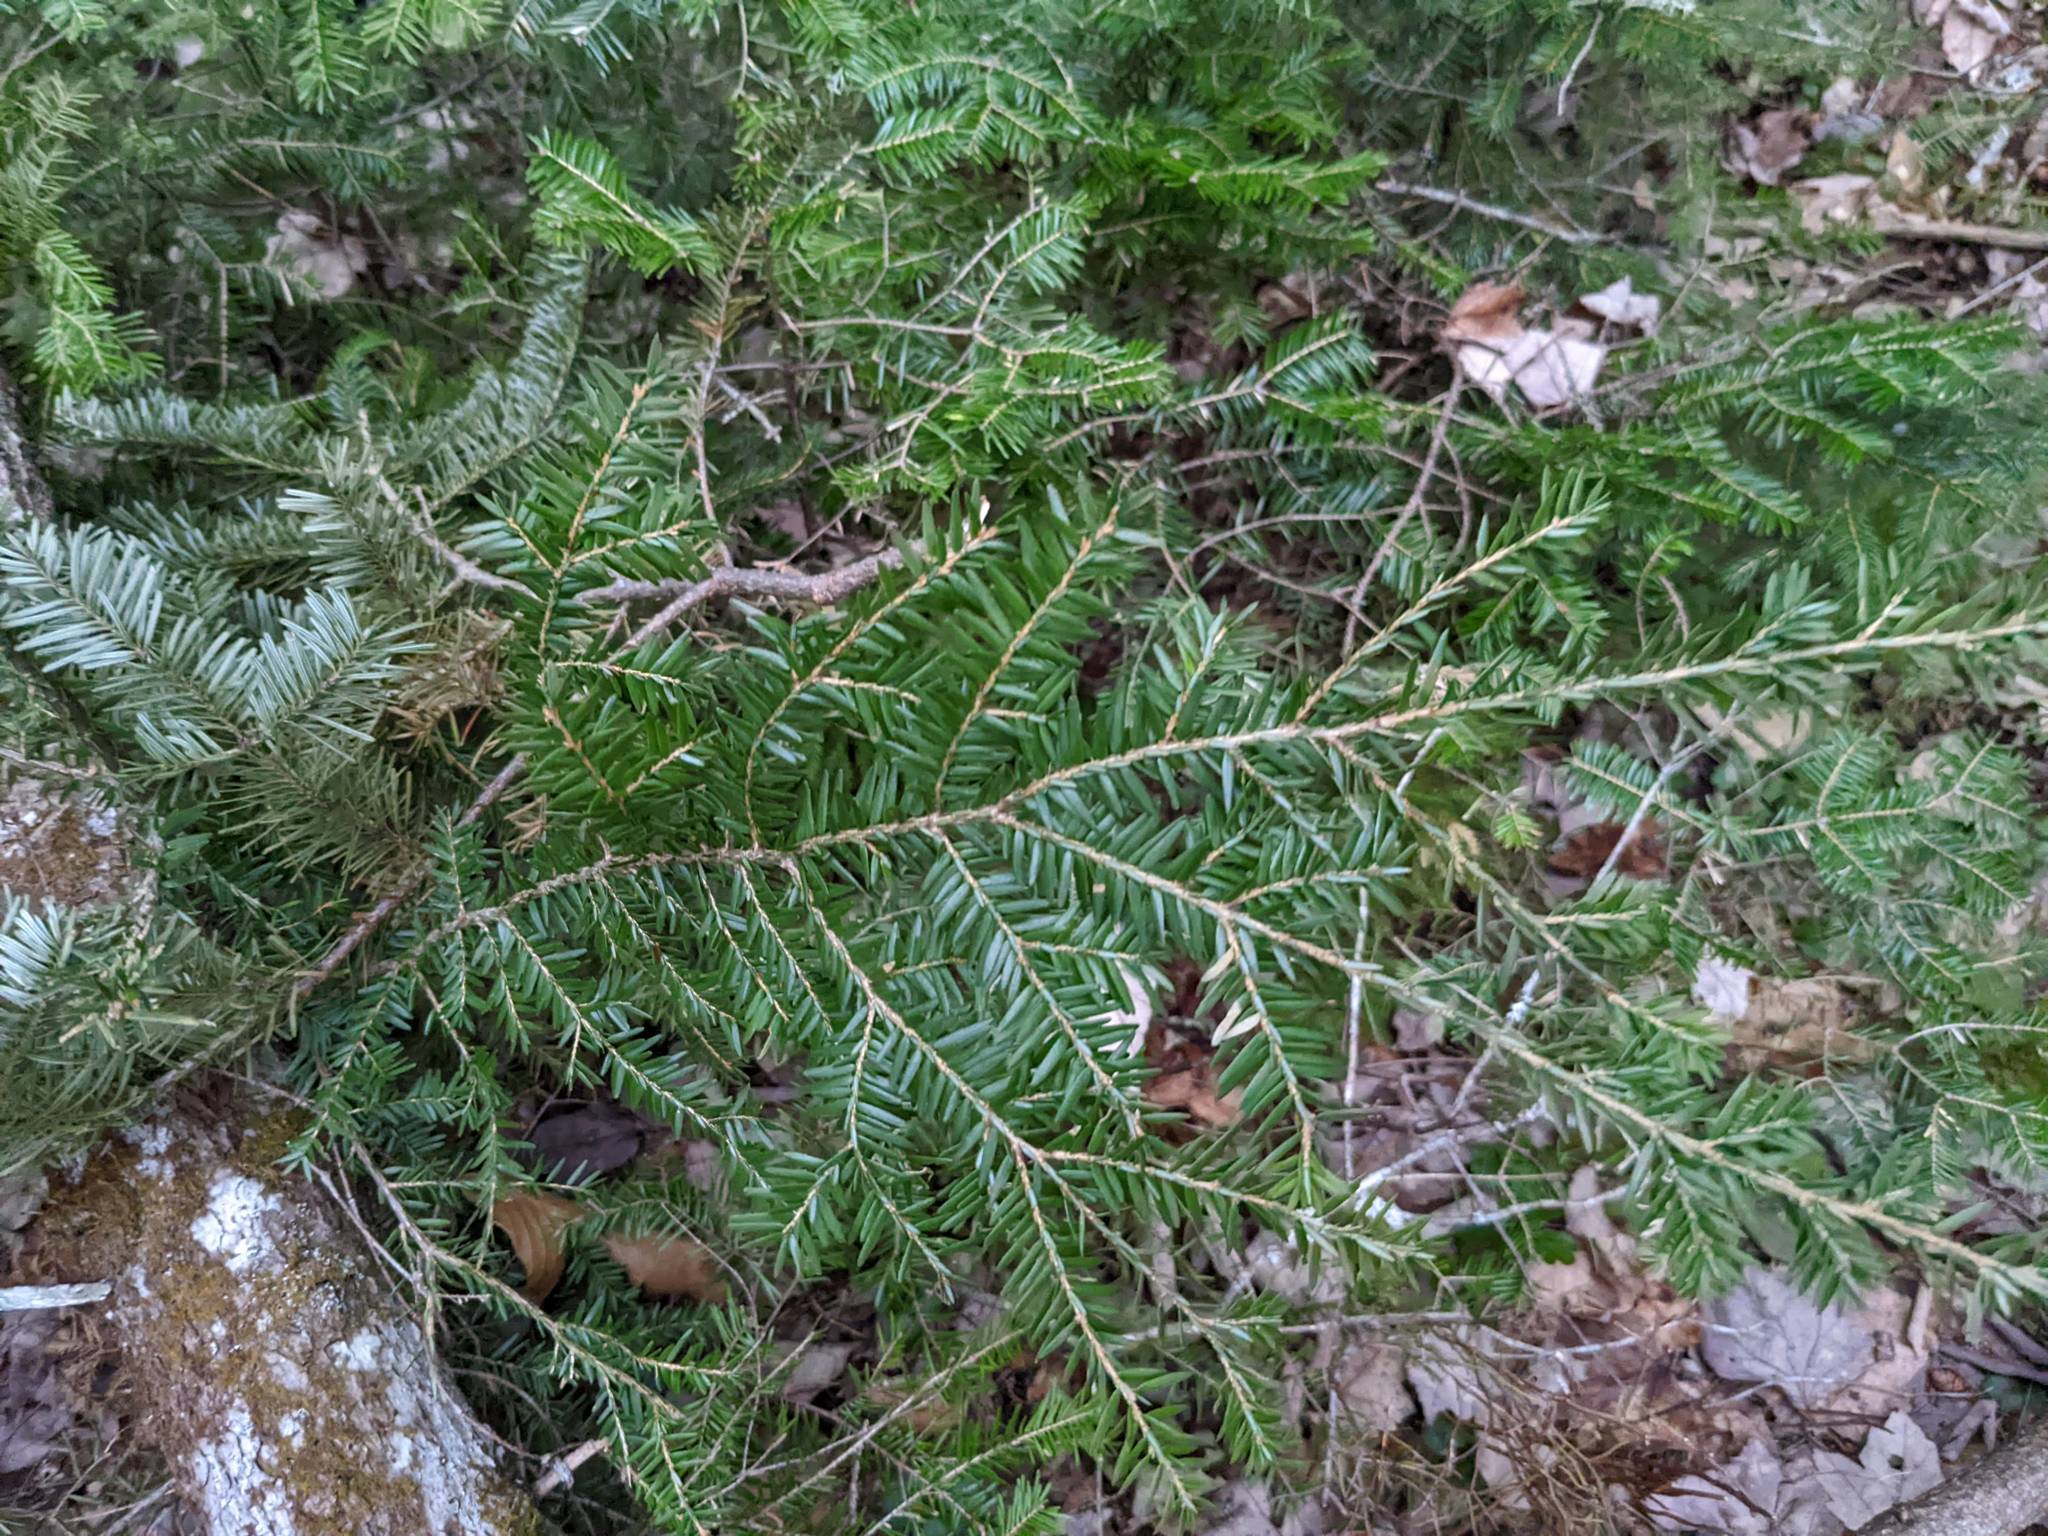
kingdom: Plantae
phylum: Tracheophyta
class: Pinopsida
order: Pinales
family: Pinaceae
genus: Tsuga
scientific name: Tsuga canadensis
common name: Eastern hemlock
